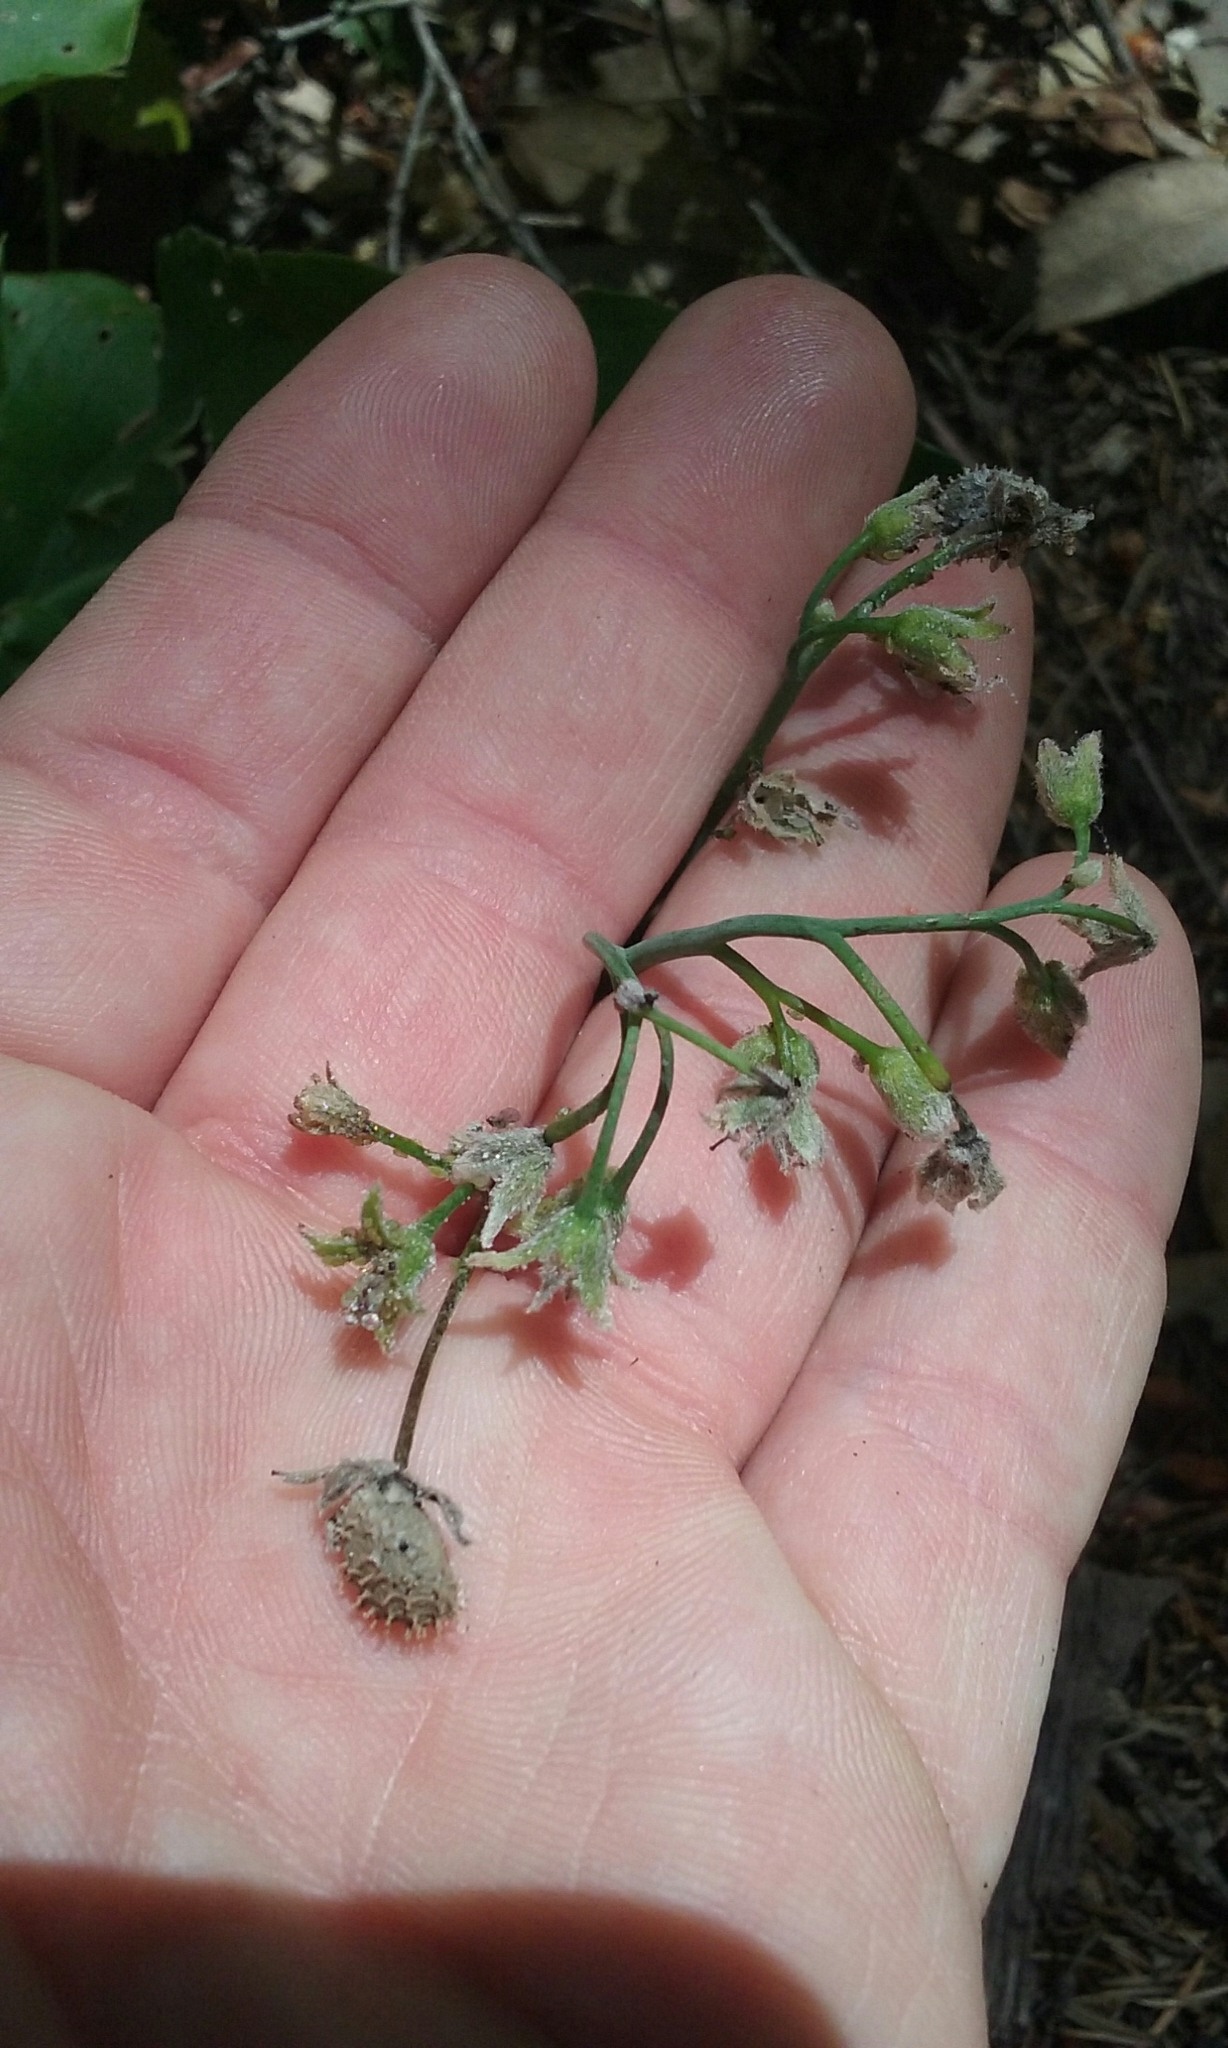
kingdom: Plantae
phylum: Tracheophyta
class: Magnoliopsida
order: Boraginales
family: Boraginaceae
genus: Adelinia
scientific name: Adelinia grande
